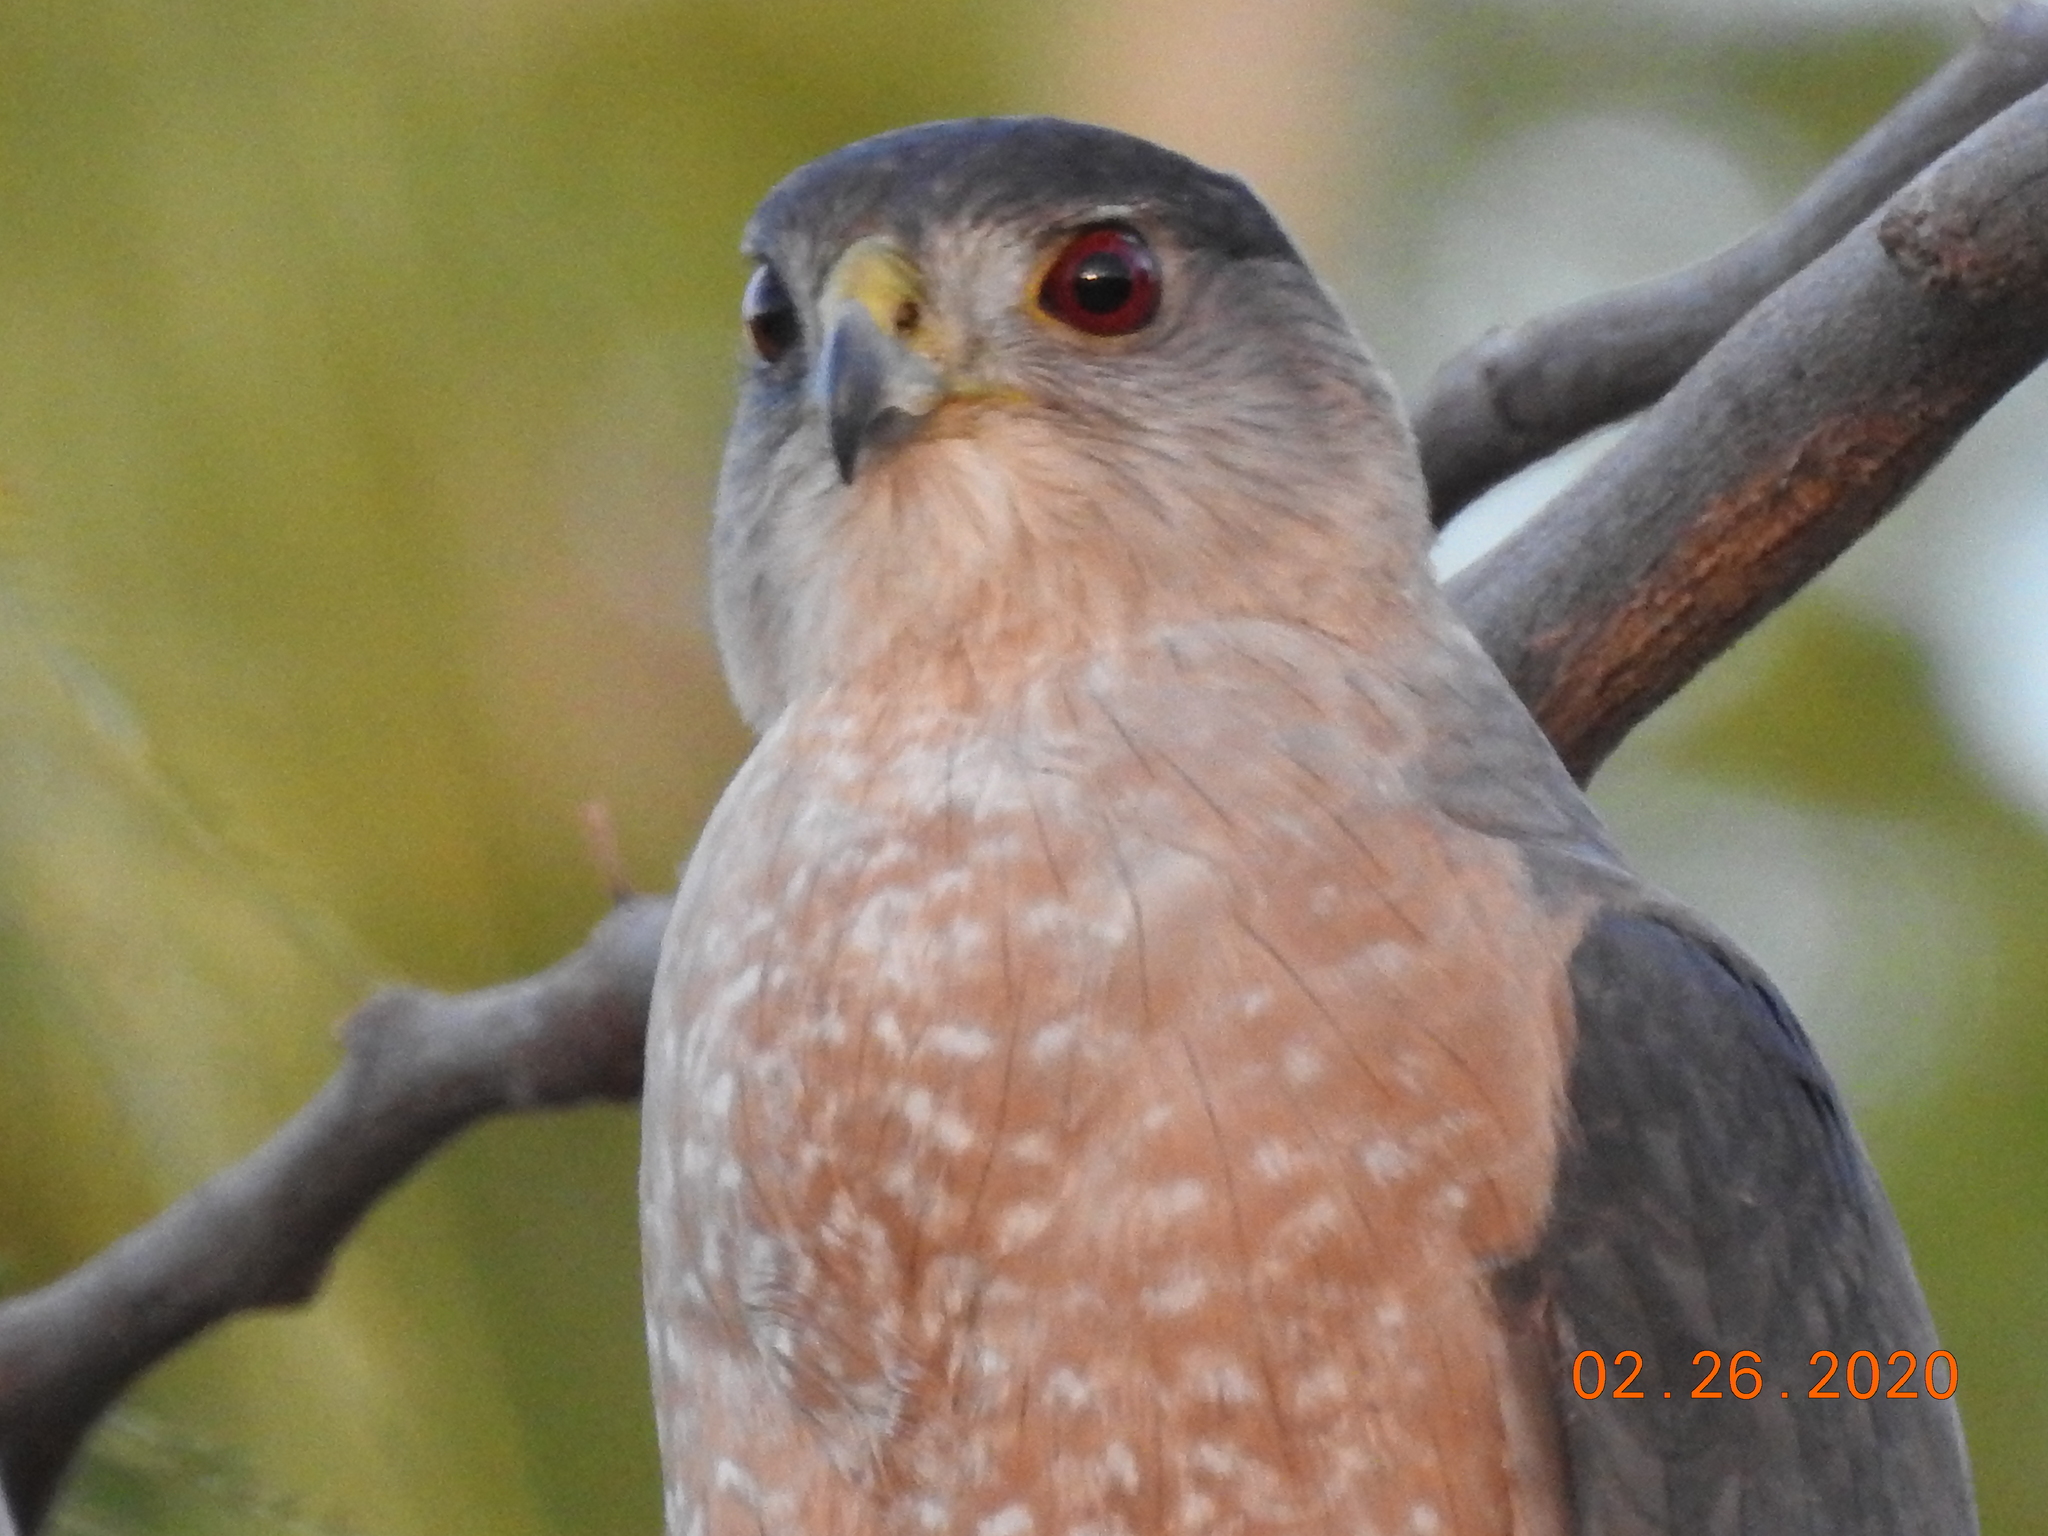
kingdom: Animalia
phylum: Chordata
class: Aves
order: Accipitriformes
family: Accipitridae
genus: Accipiter
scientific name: Accipiter cooperii
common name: Cooper's hawk
